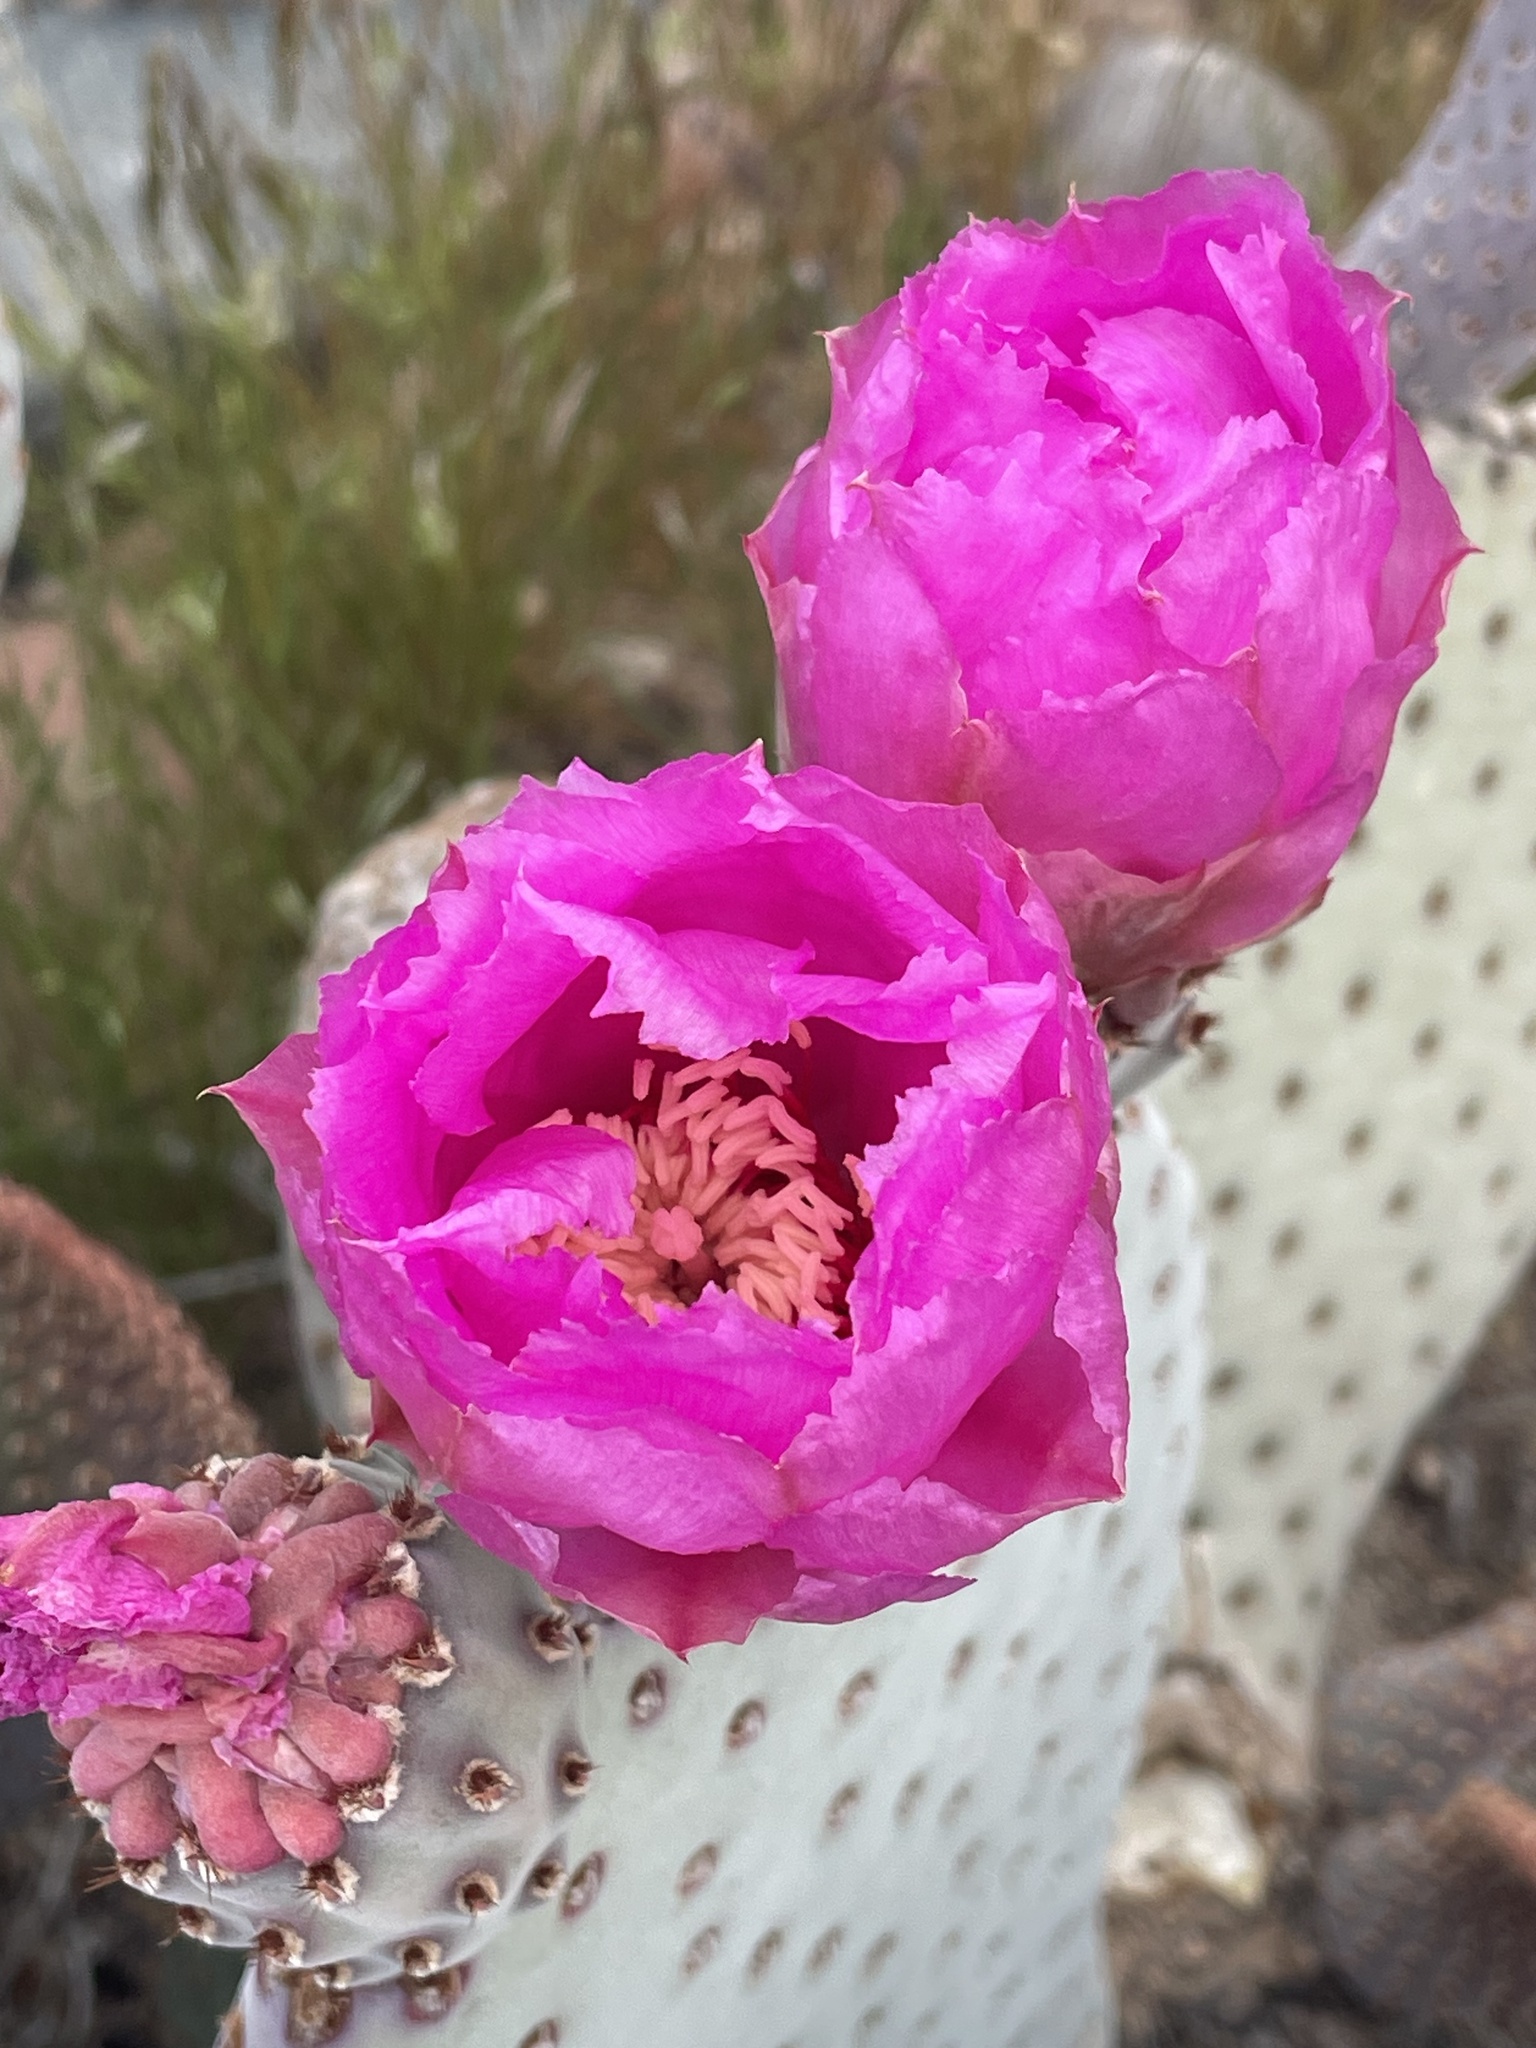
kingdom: Plantae
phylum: Tracheophyta
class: Magnoliopsida
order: Caryophyllales
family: Cactaceae
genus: Opuntia
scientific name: Opuntia basilaris
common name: Beavertail prickly-pear
